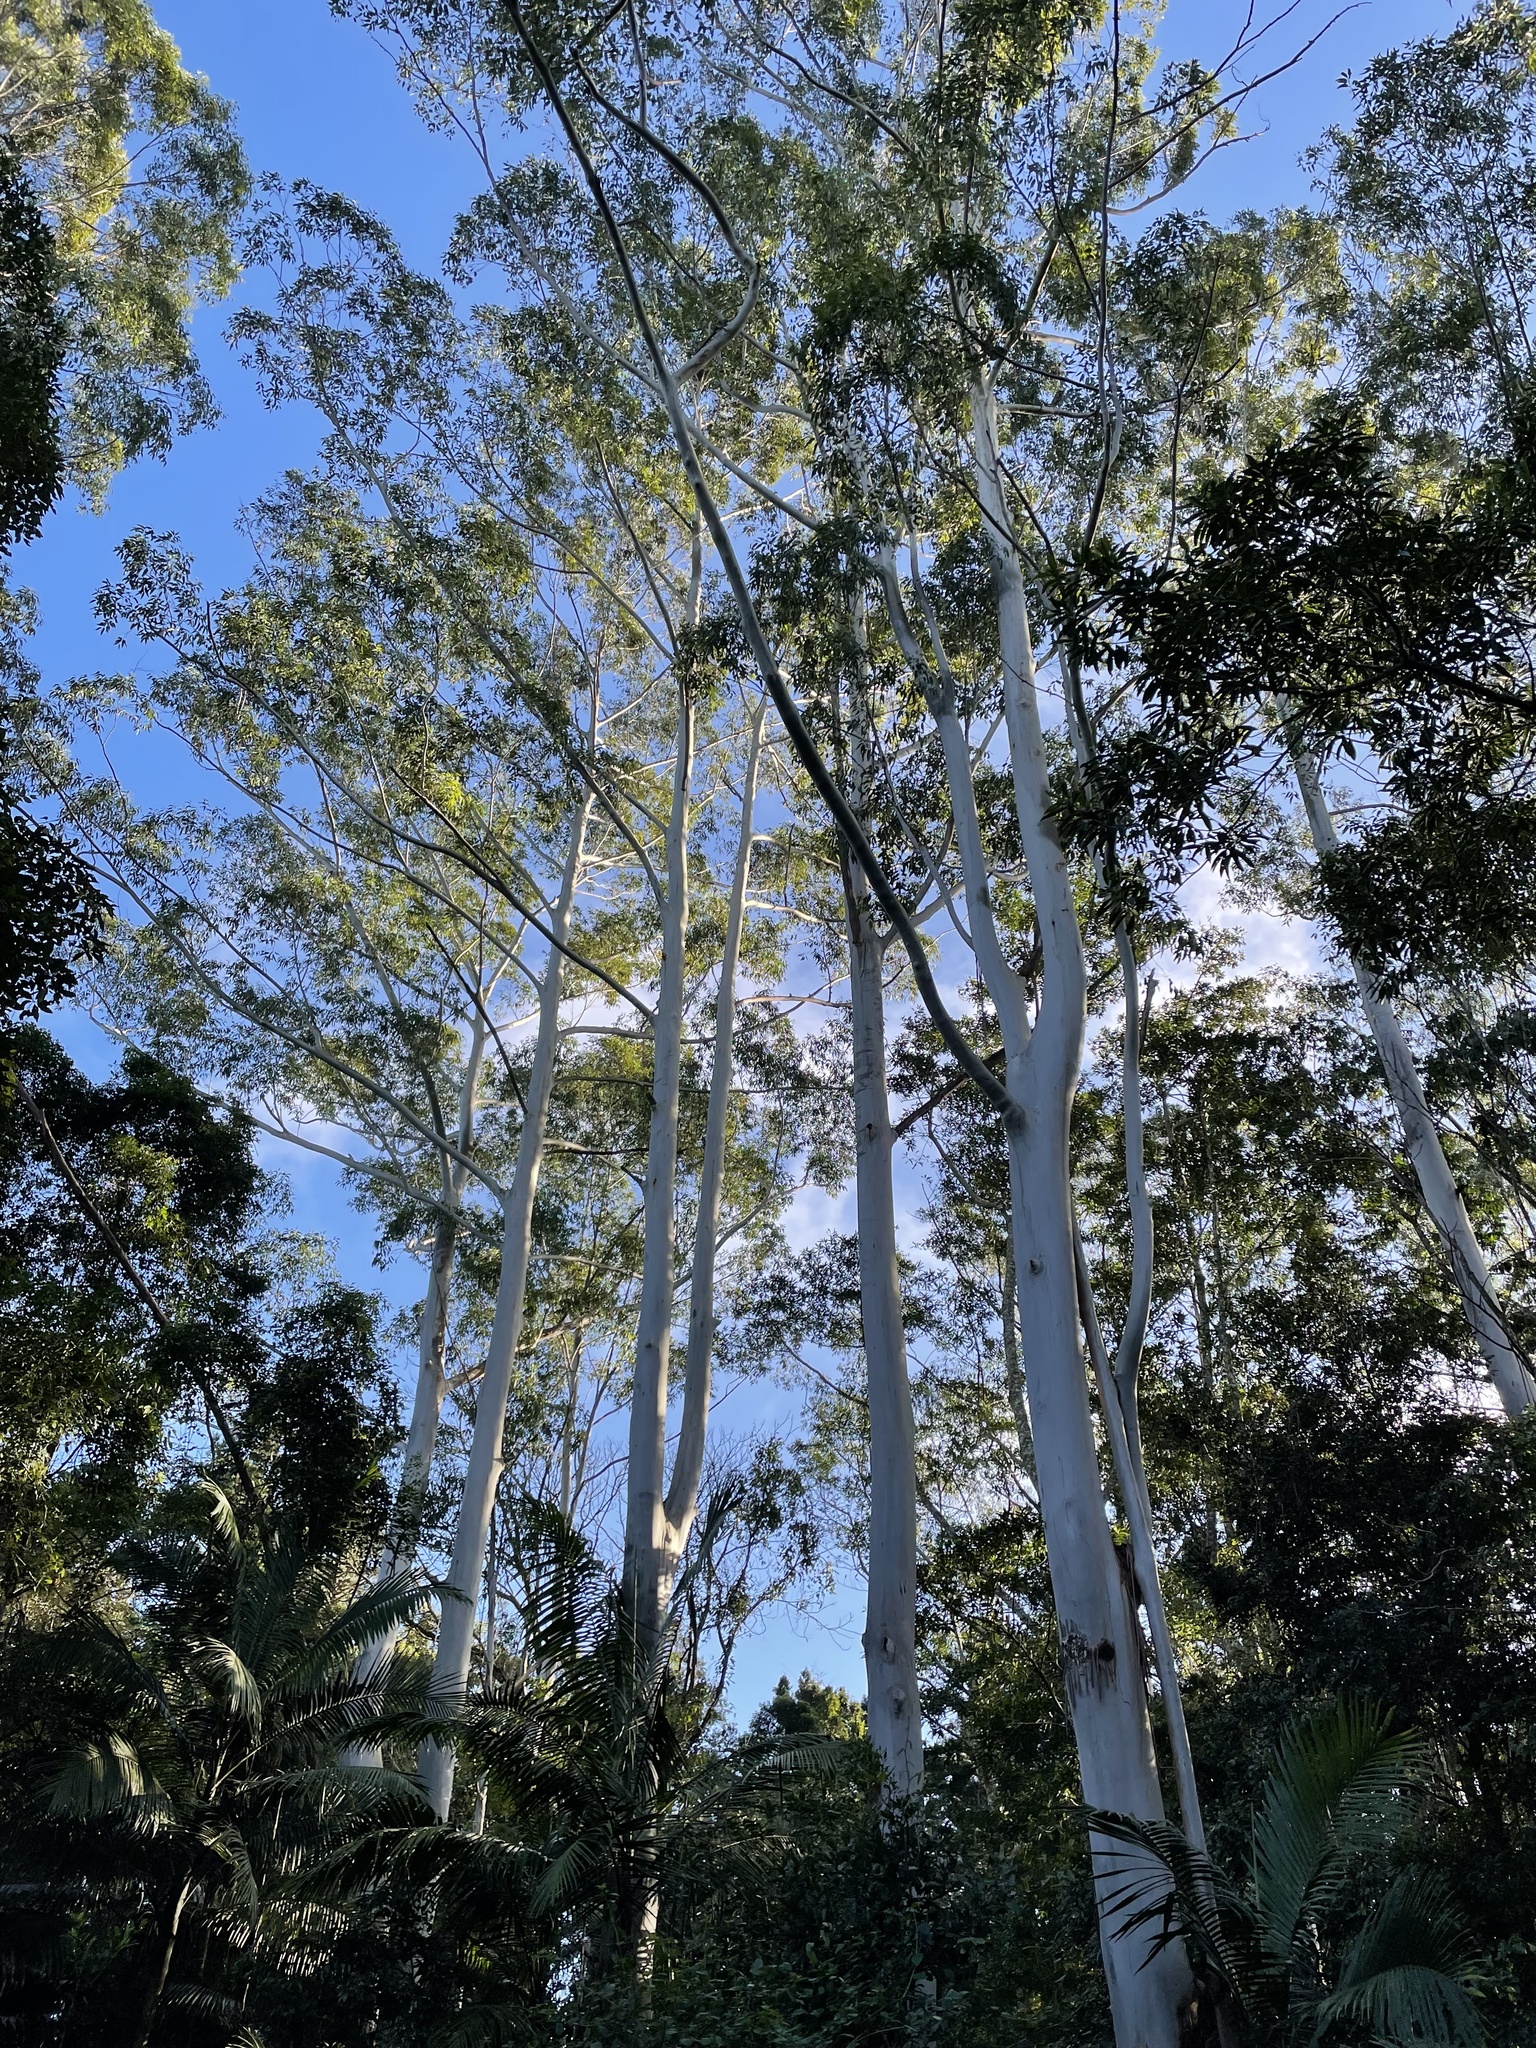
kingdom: Plantae
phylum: Tracheophyta
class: Magnoliopsida
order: Myrtales
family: Myrtaceae
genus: Eucalyptus
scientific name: Eucalyptus grandis
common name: Grand eucalyptus
